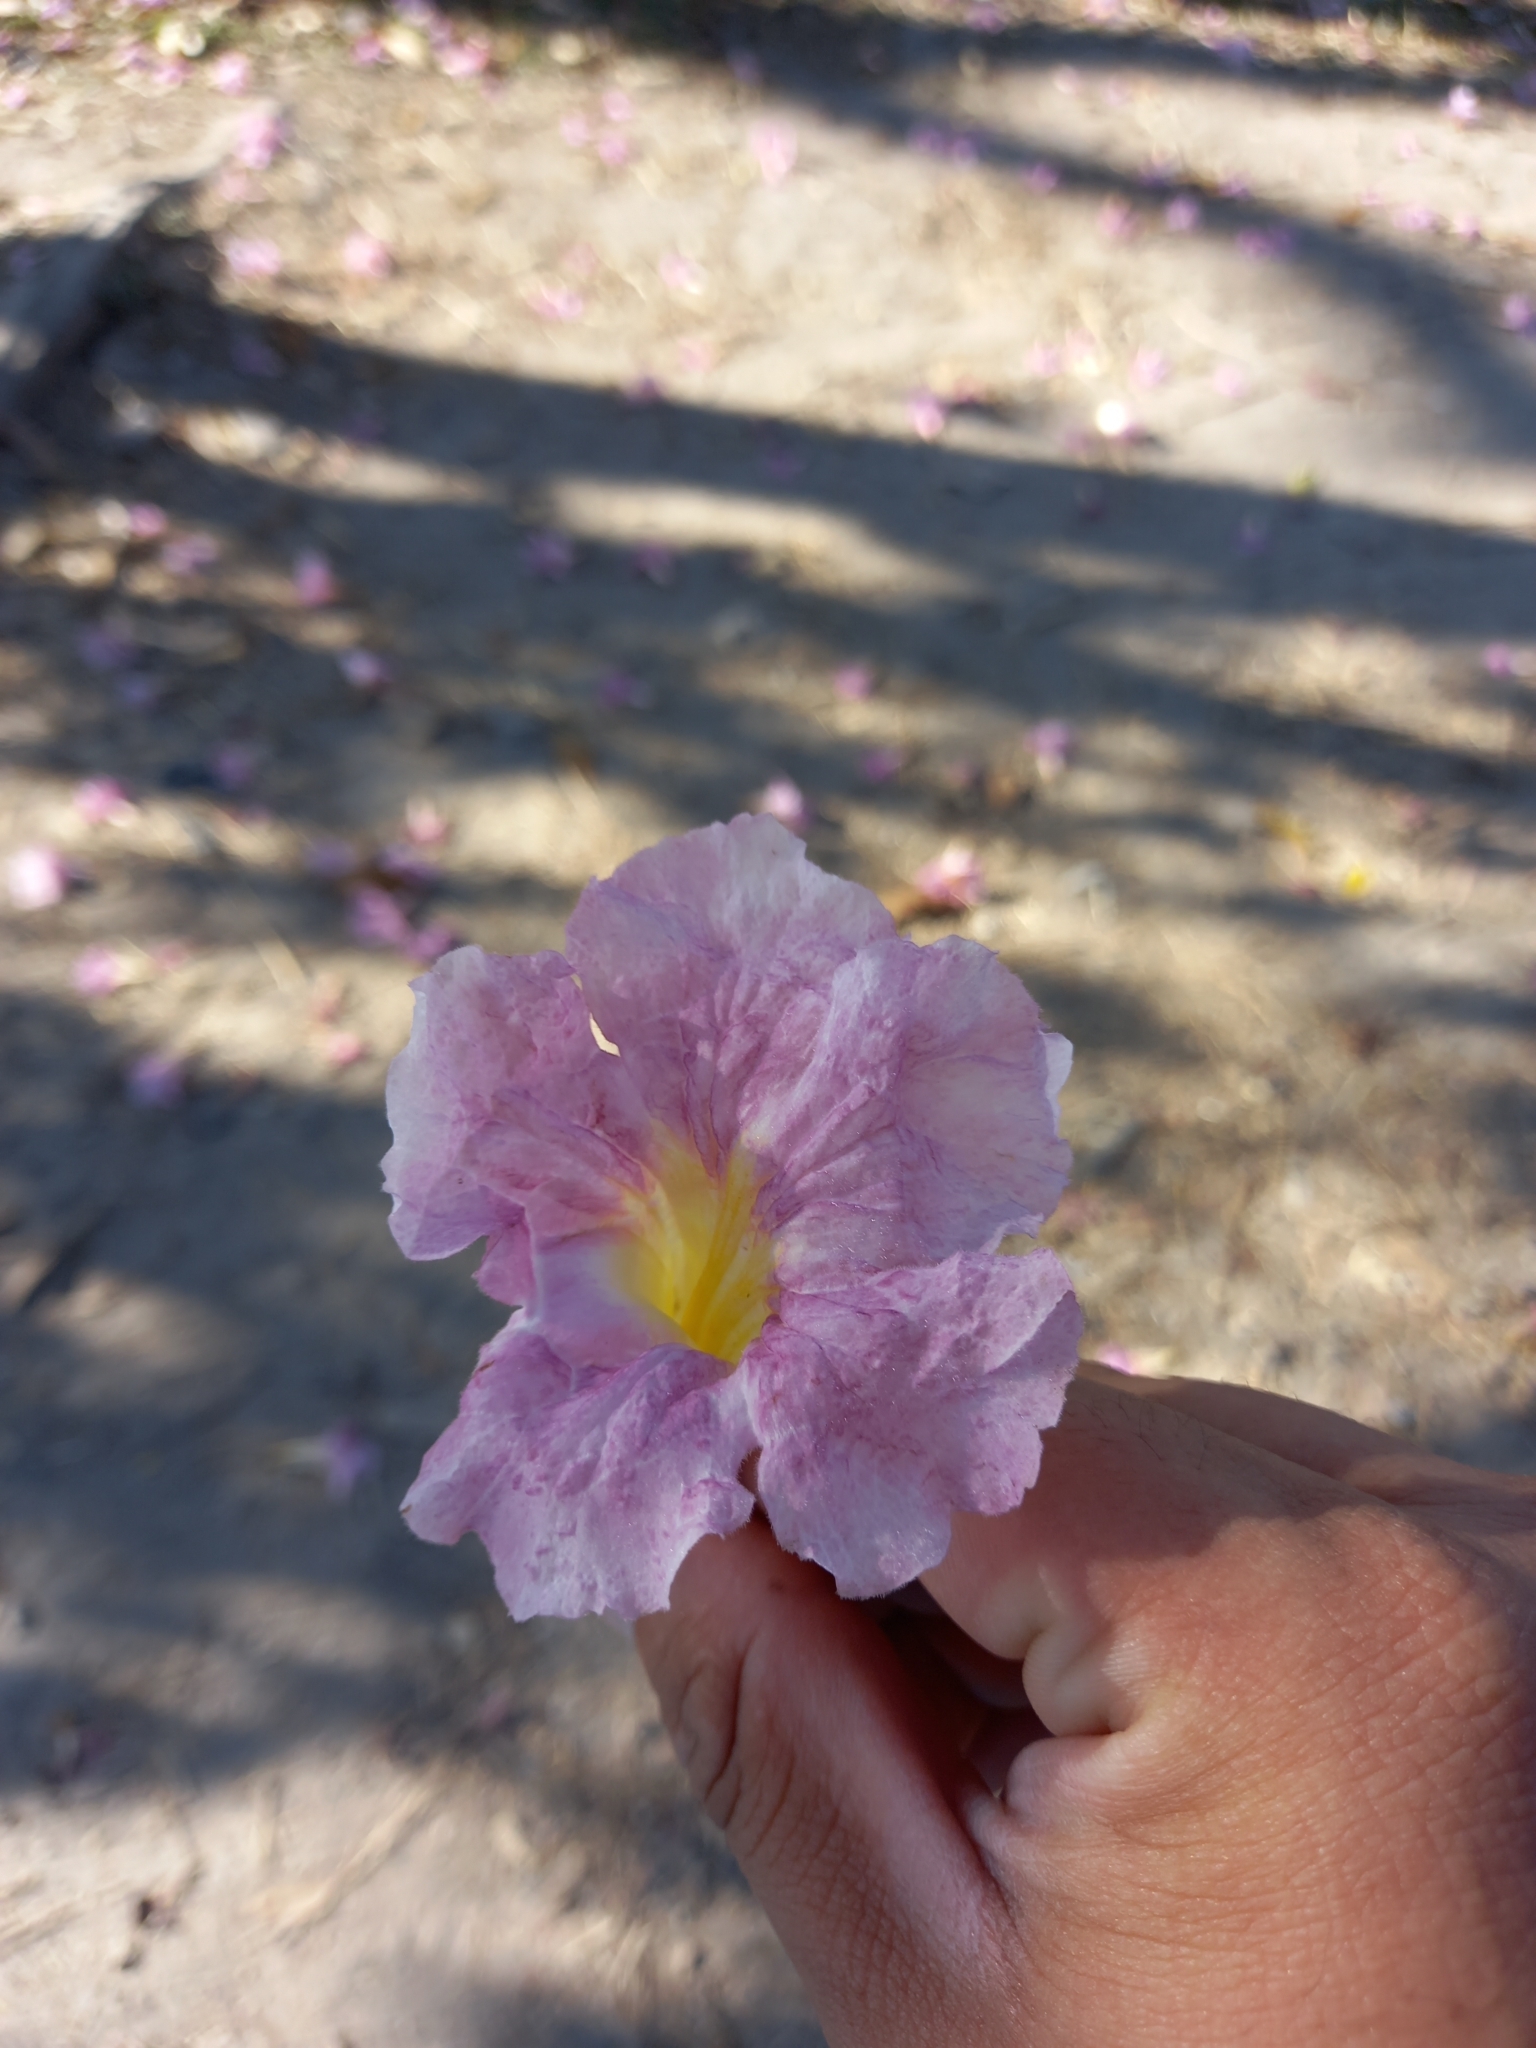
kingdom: Plantae
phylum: Tracheophyta
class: Magnoliopsida
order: Lamiales
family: Bignoniaceae
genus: Tabebuia
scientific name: Tabebuia rosea
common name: Pink poui
